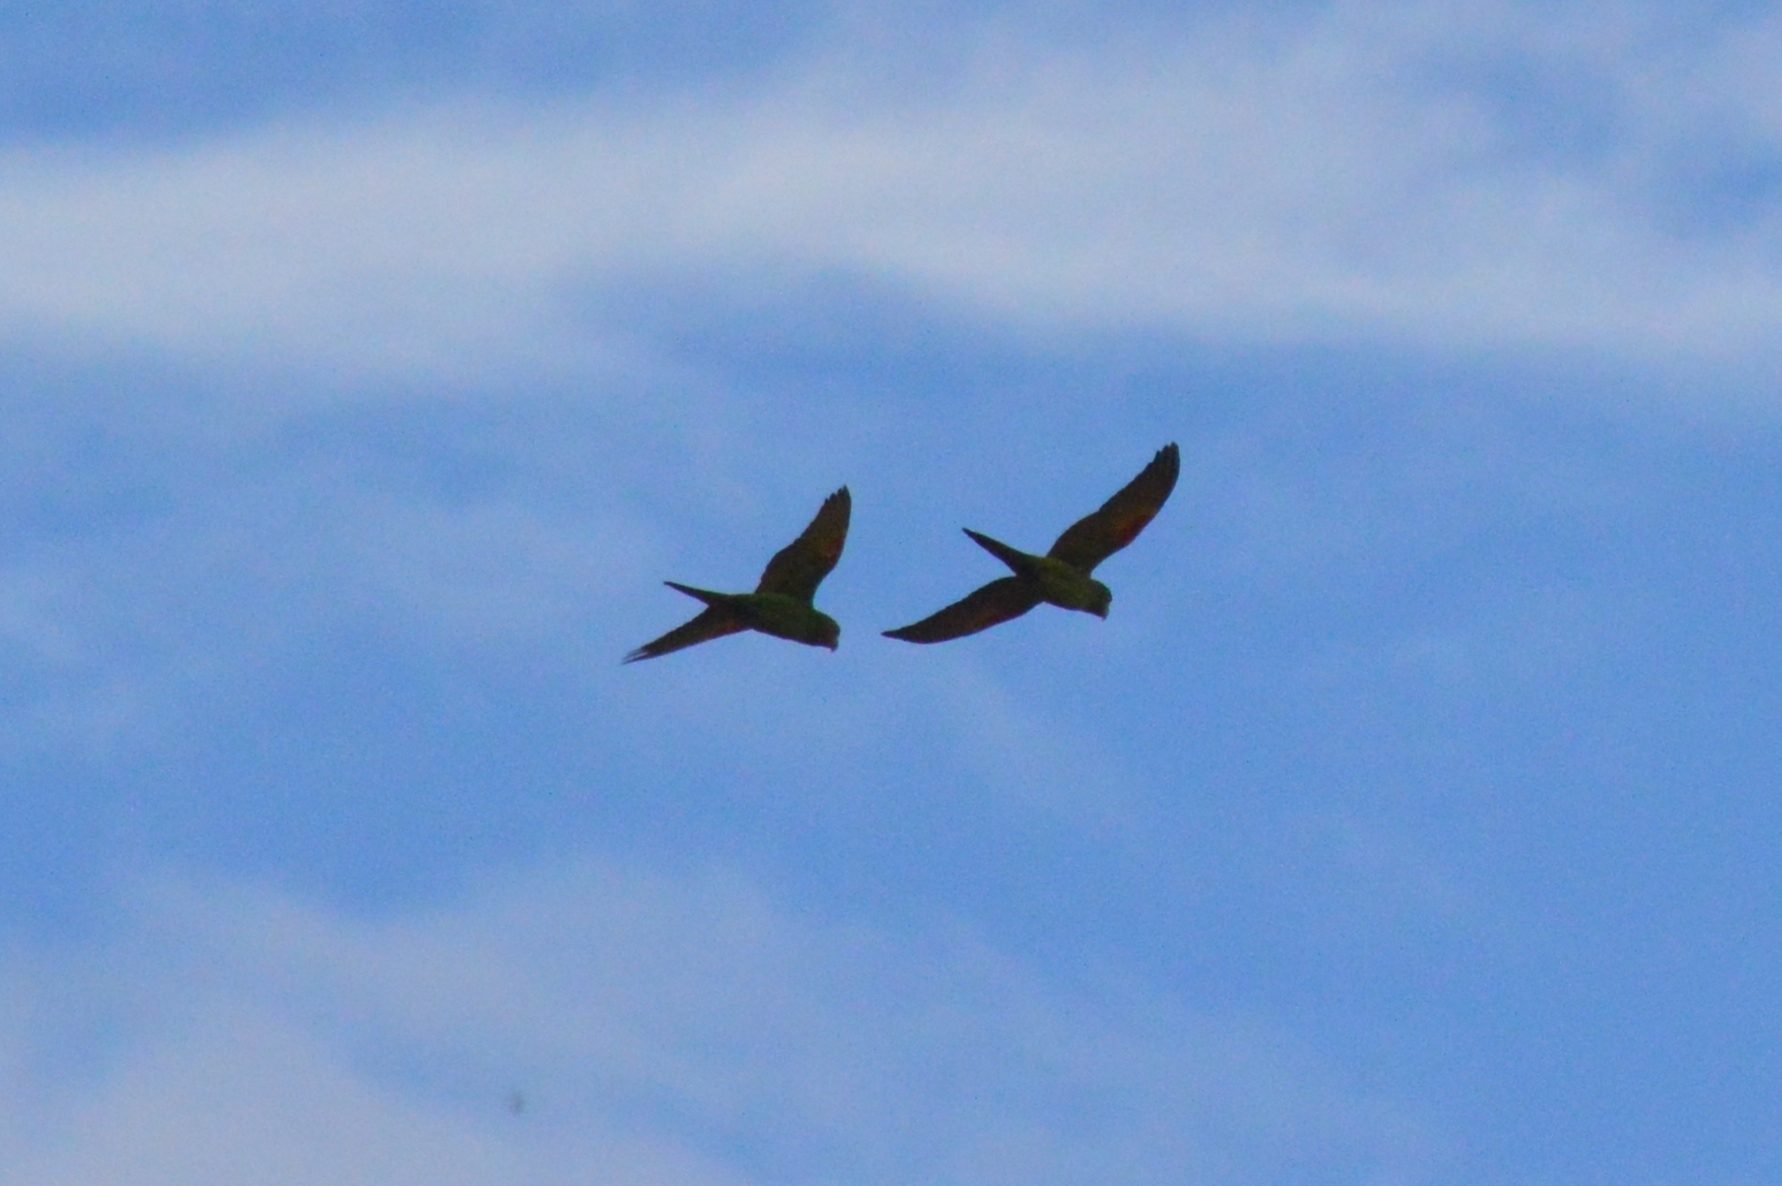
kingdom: Animalia
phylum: Chordata
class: Aves
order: Psittaciformes
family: Psittacidae
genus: Aratinga
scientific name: Aratinga leucophthalma
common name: White-eyed parakeet
